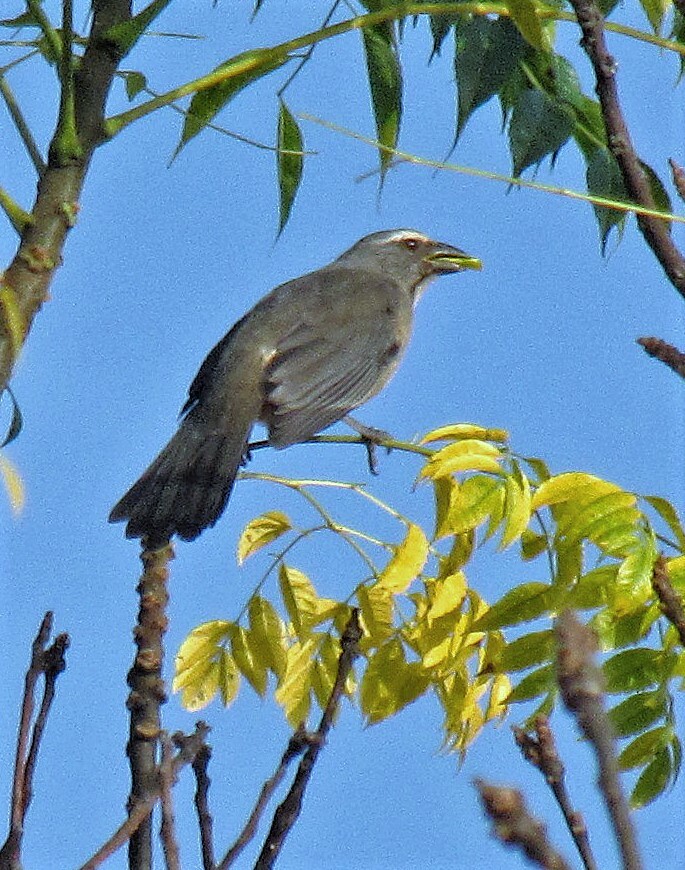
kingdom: Animalia
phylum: Chordata
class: Aves
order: Passeriformes
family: Thraupidae
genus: Saltator
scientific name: Saltator coerulescens
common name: Grayish saltator
